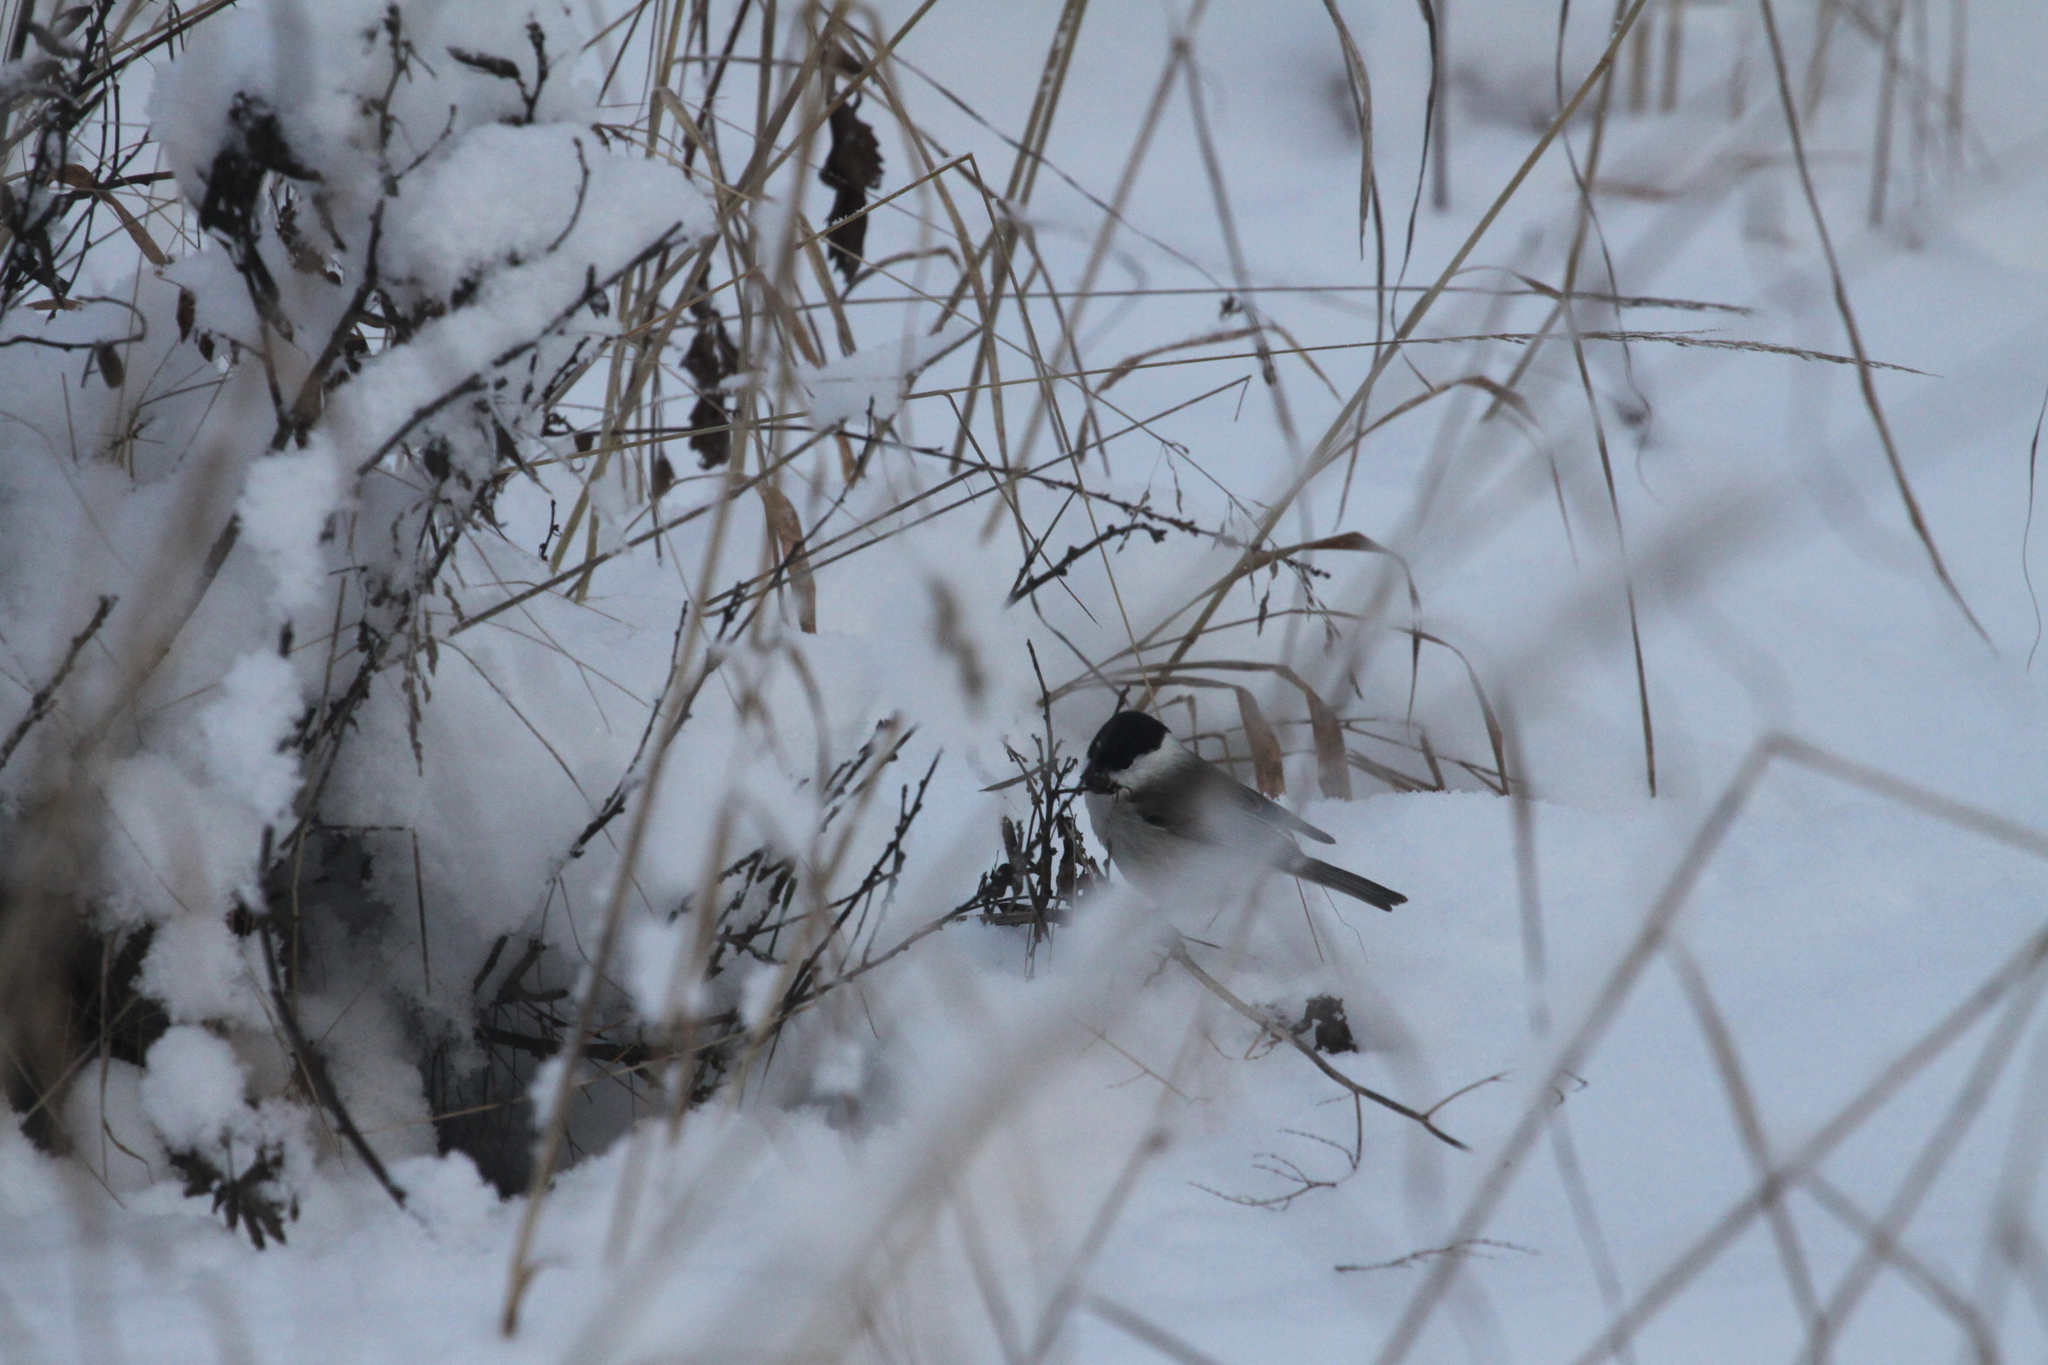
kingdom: Animalia
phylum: Chordata
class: Aves
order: Passeriformes
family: Paridae
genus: Poecile
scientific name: Poecile montanus
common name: Willow tit
